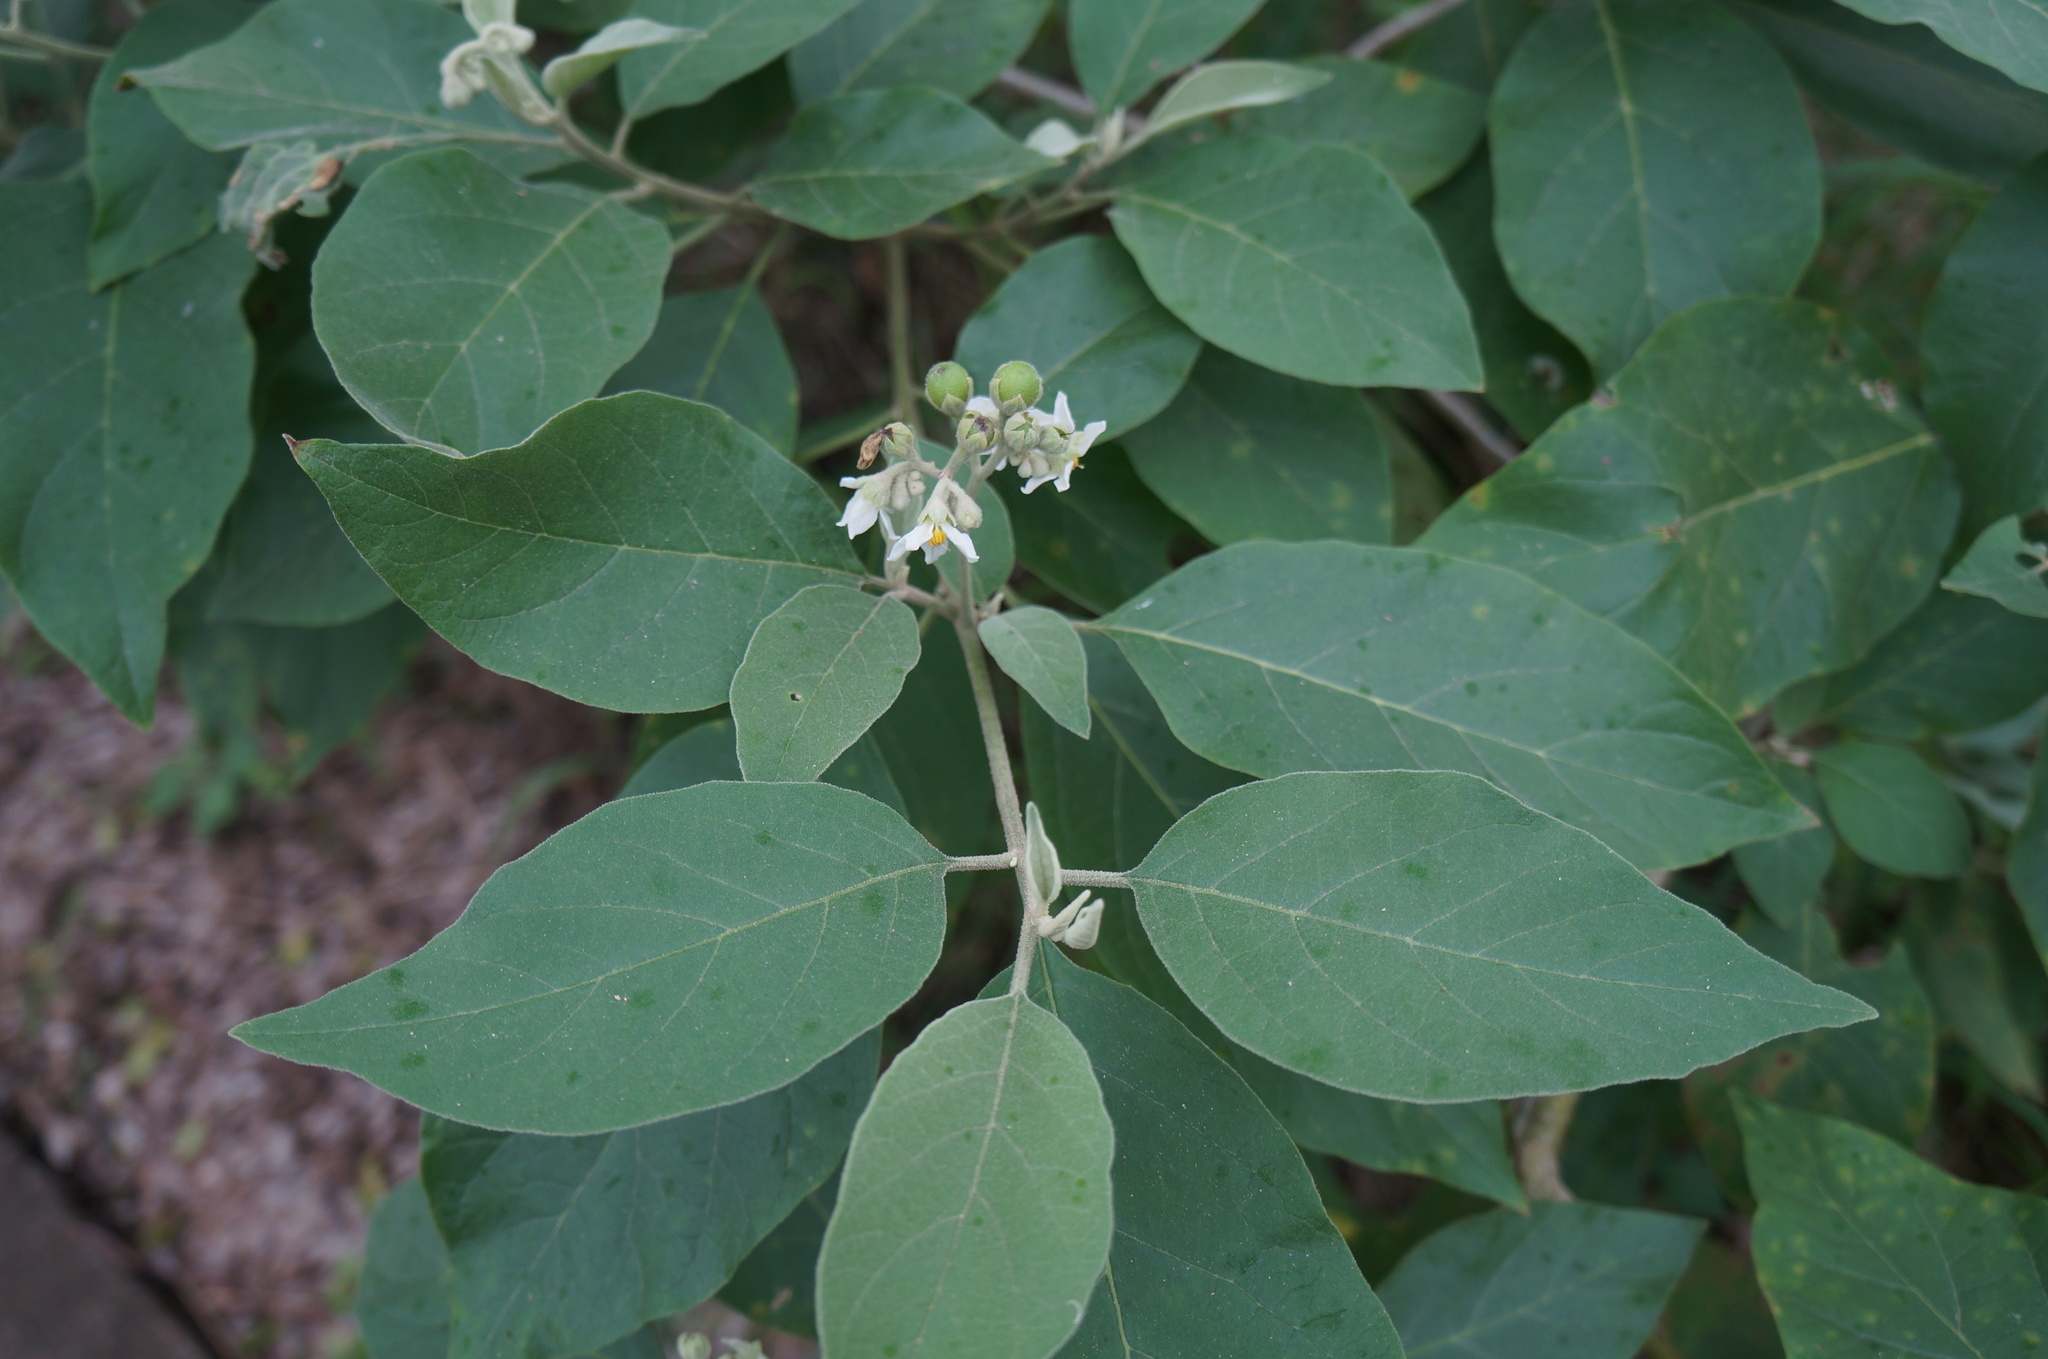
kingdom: Plantae
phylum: Tracheophyta
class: Magnoliopsida
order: Solanales
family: Solanaceae
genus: Solanum
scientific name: Solanum erianthum
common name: Tobacco-tree
